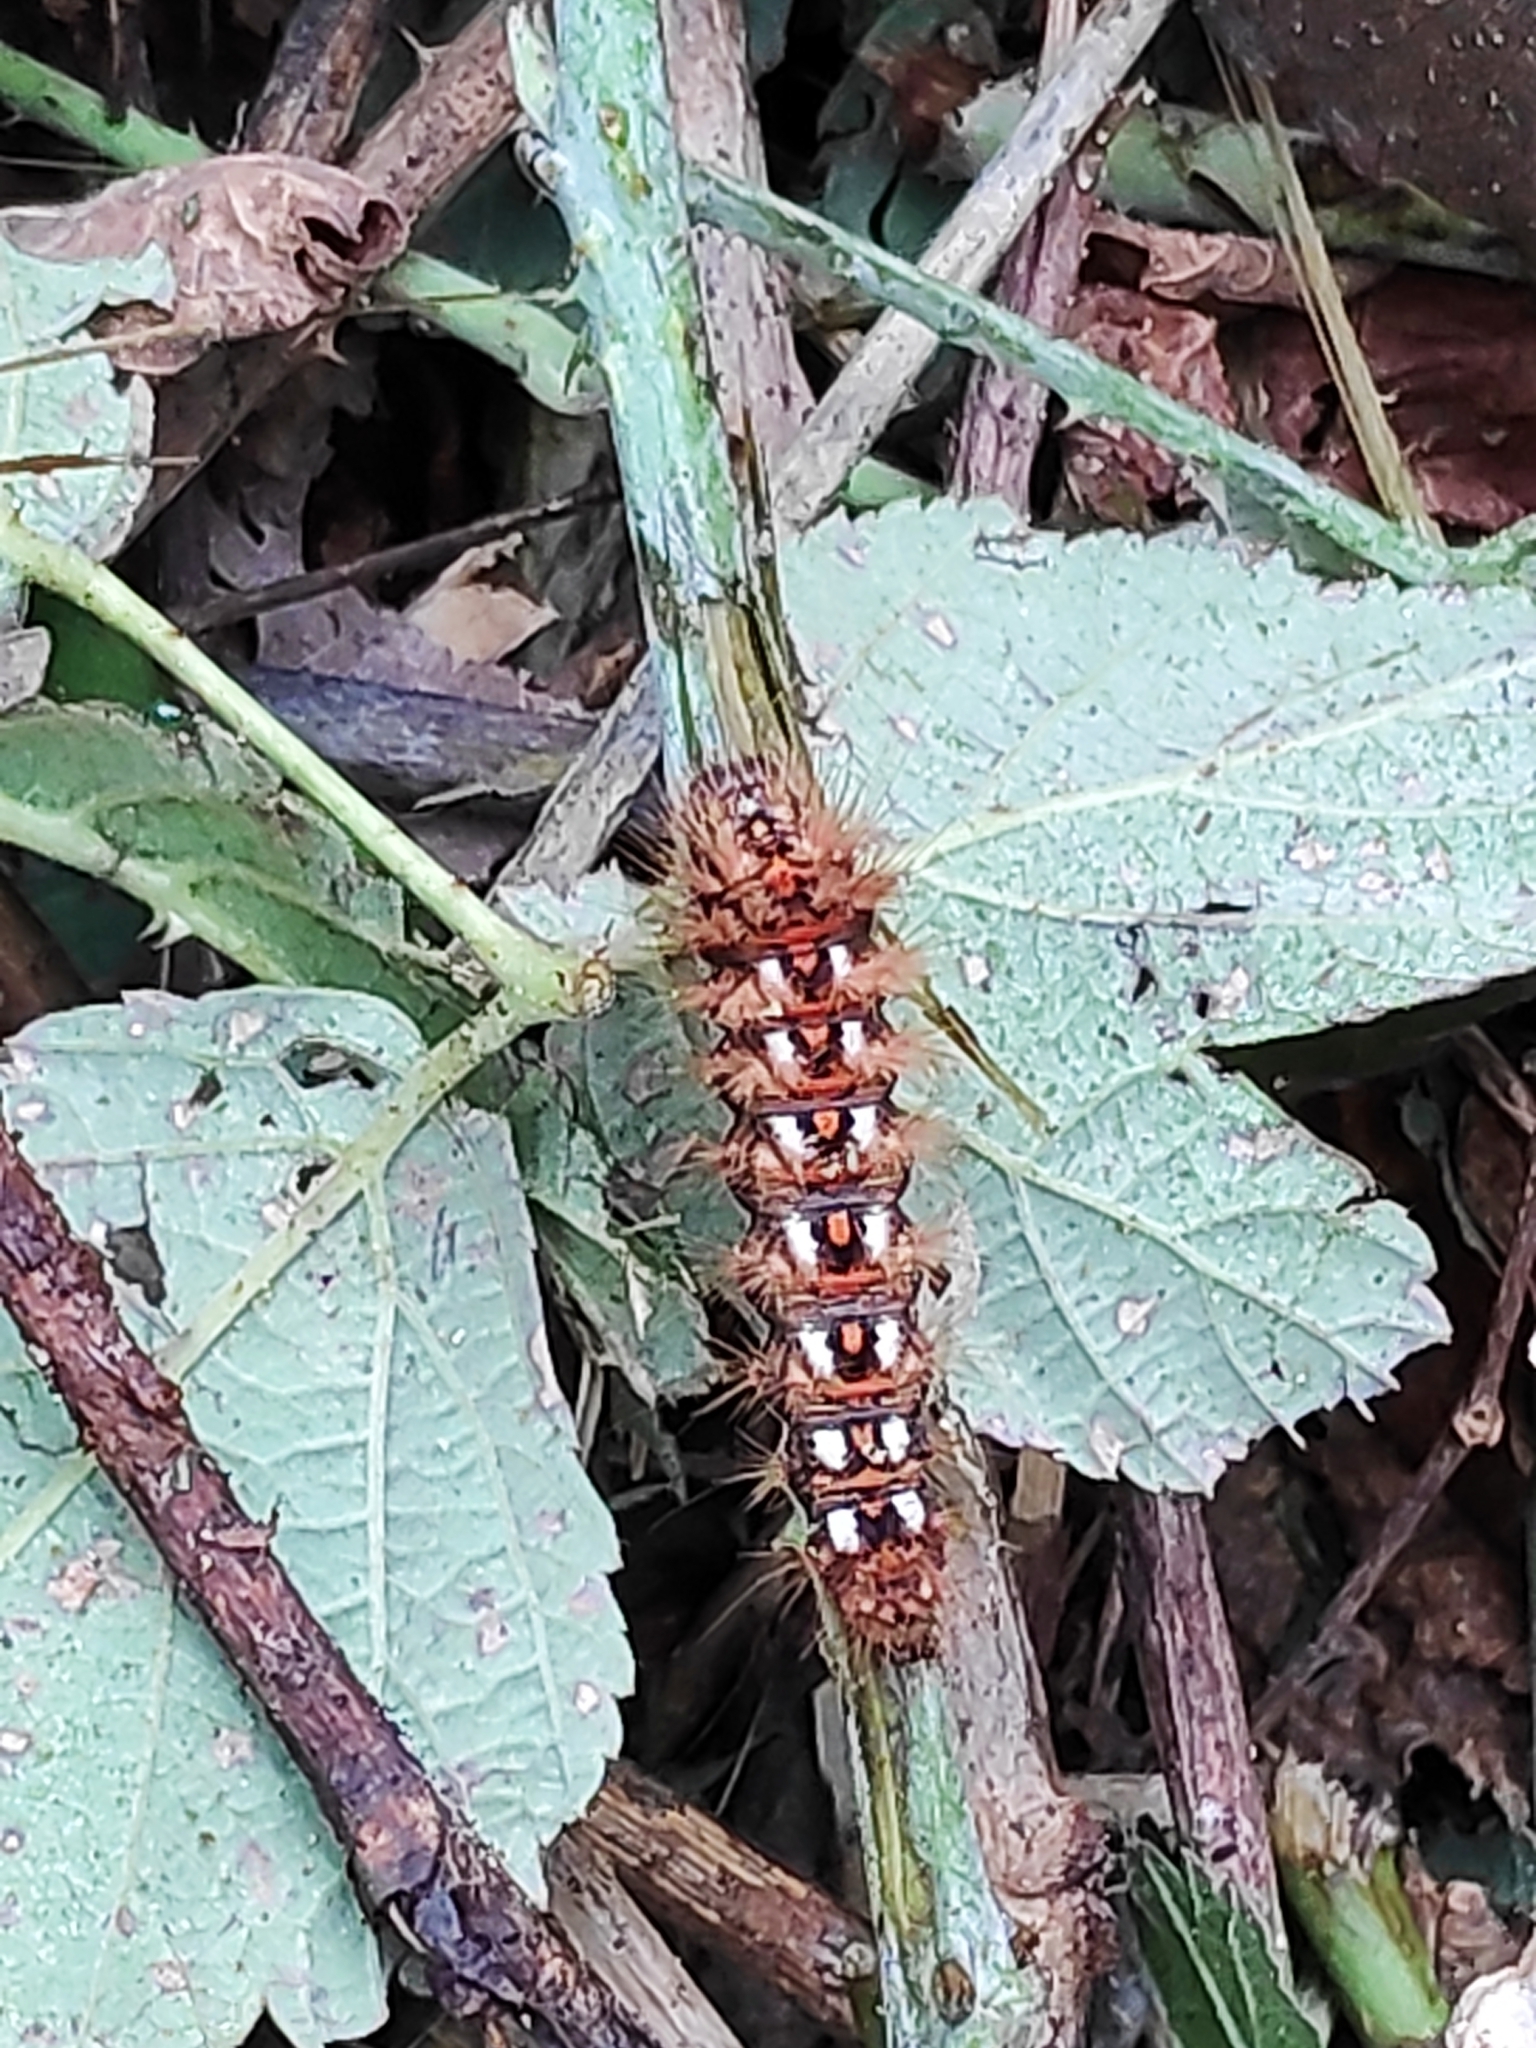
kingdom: Animalia
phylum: Arthropoda
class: Insecta
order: Lepidoptera
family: Noctuidae
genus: Acronicta
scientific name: Acronicta rumicis
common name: Knot grass
